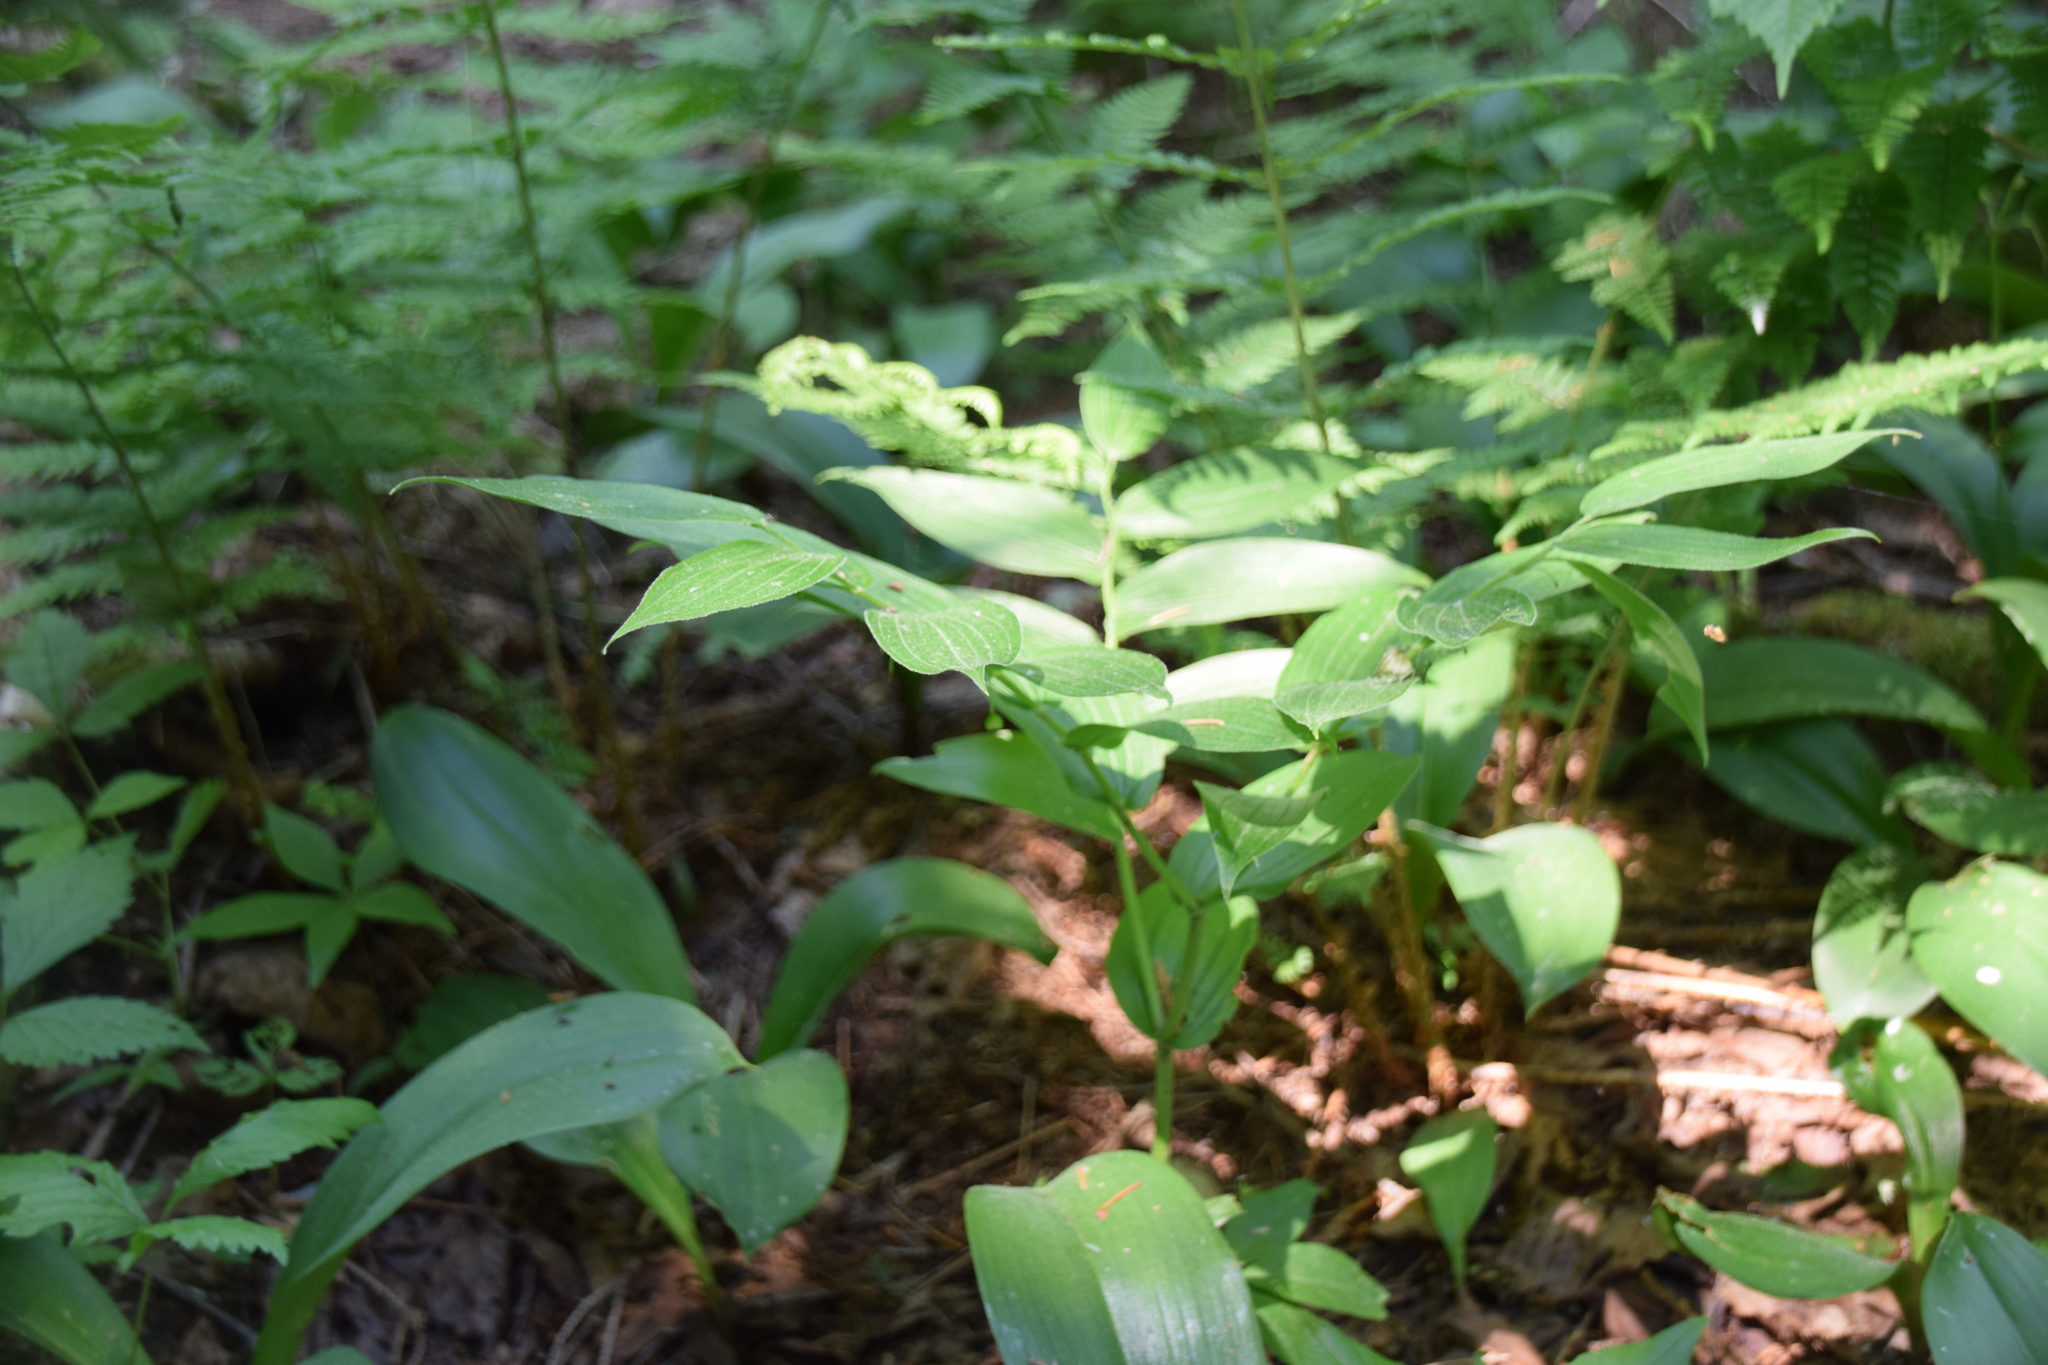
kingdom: Plantae
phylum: Tracheophyta
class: Liliopsida
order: Liliales
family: Liliaceae
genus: Streptopus
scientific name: Streptopus lanceolatus
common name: Rose mandarin
